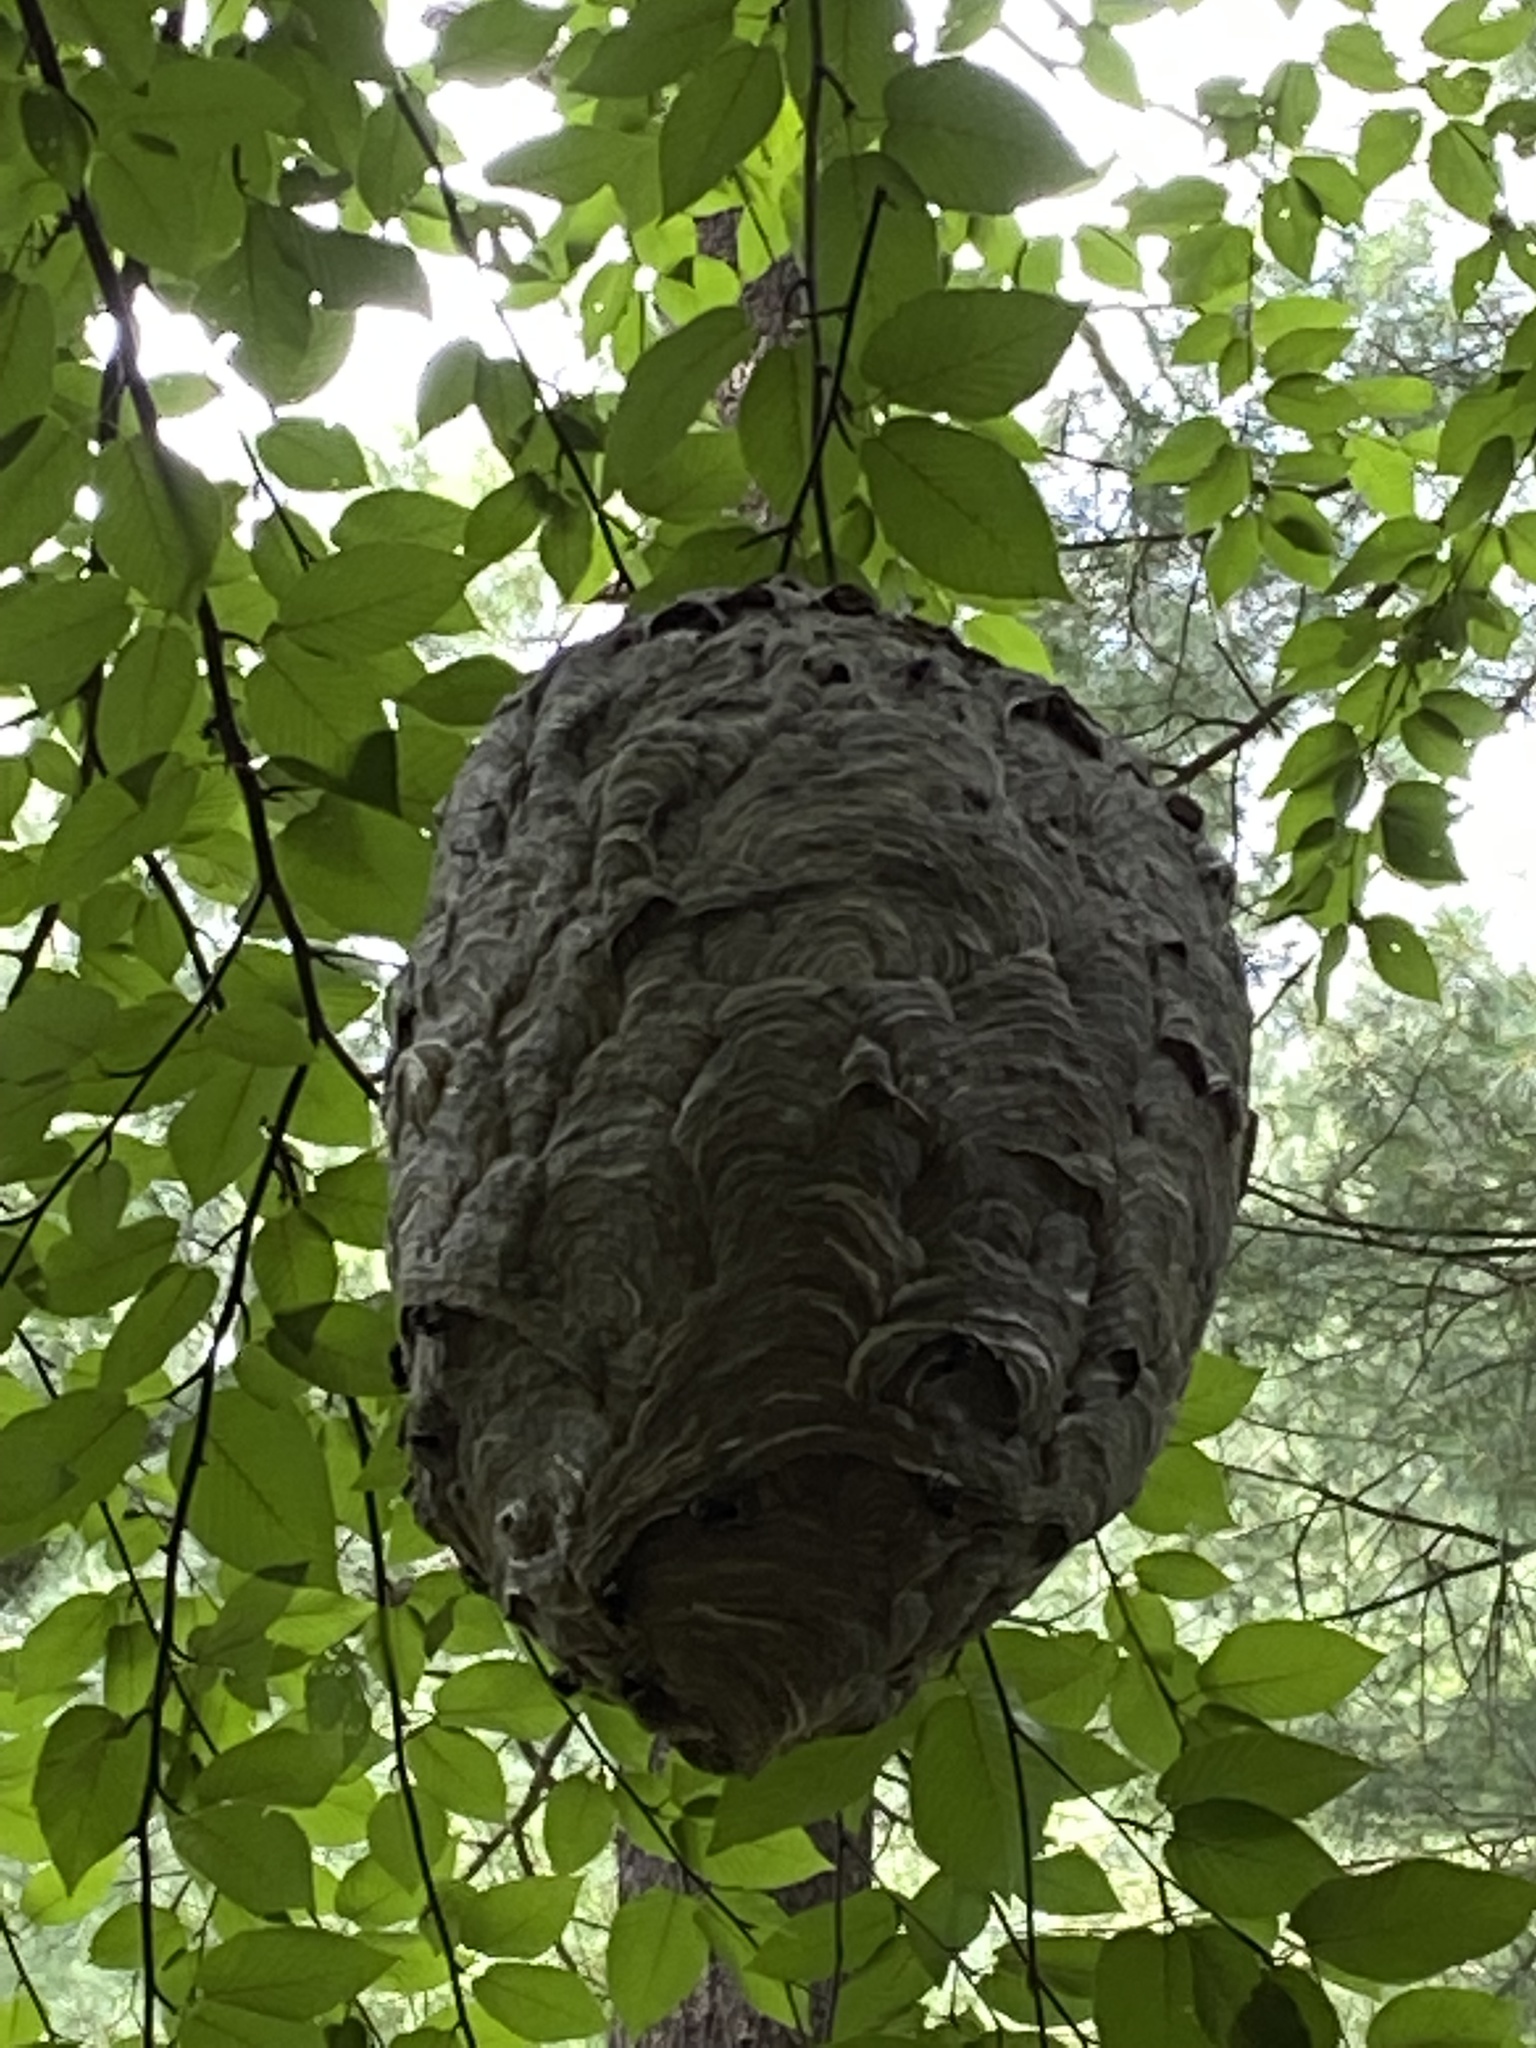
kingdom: Animalia
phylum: Arthropoda
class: Insecta
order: Hymenoptera
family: Vespidae
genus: Dolichovespula
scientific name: Dolichovespula maculata
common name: Bald-faced hornet
